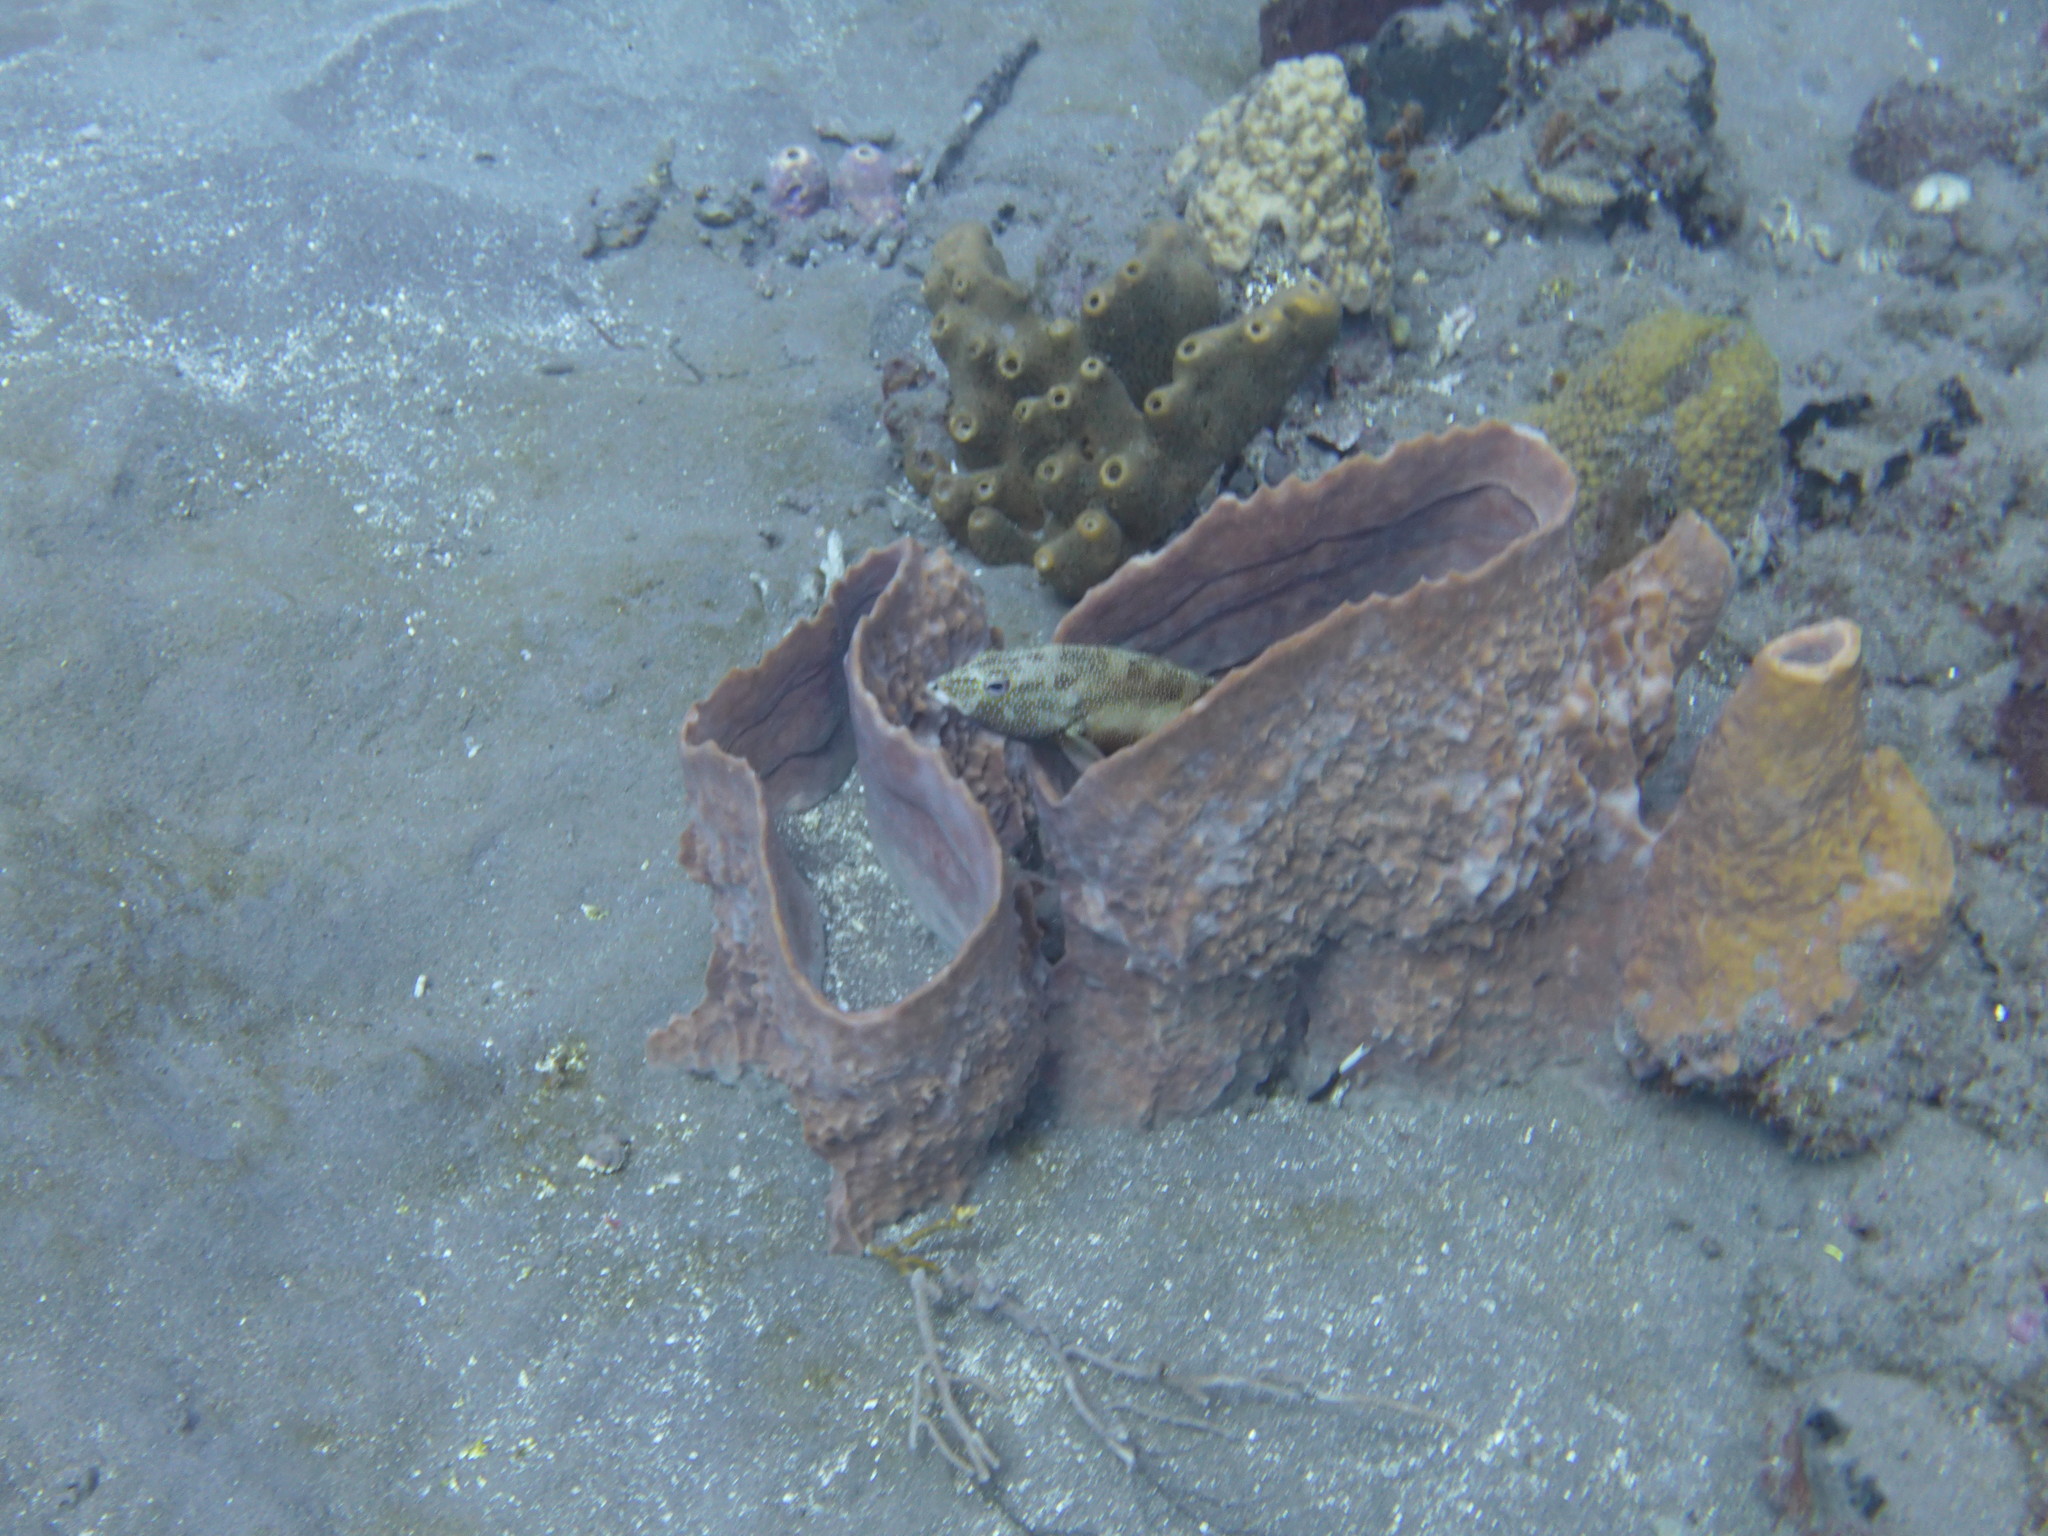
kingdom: Animalia
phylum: Chordata
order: Perciformes
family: Serranidae
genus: Cephalopholis
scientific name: Cephalopholis fulva
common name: Butterfish
